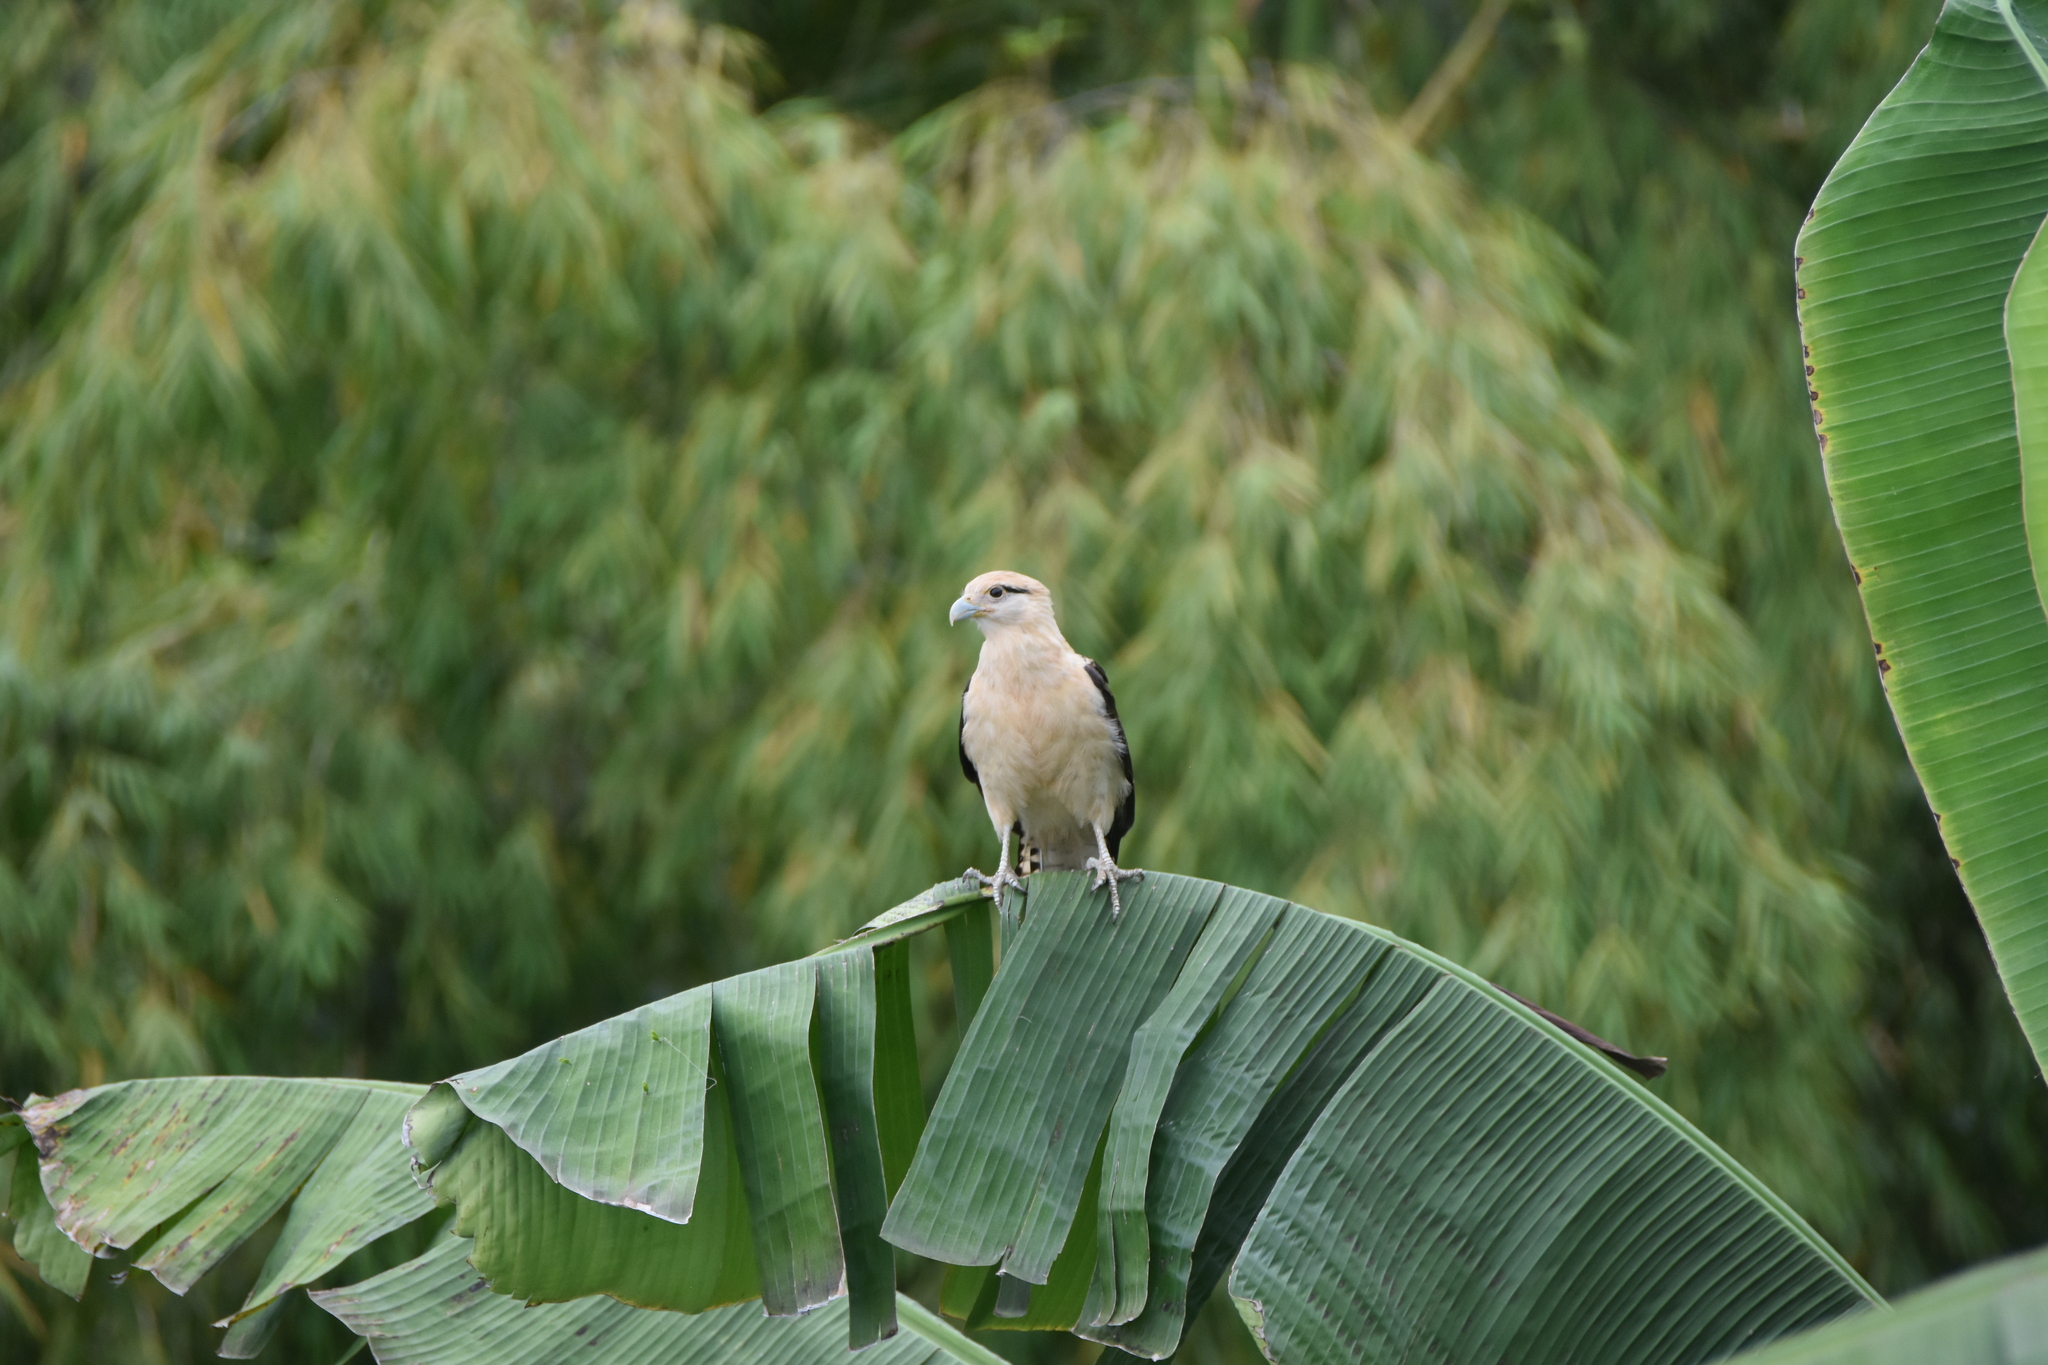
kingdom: Animalia
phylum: Chordata
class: Aves
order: Falconiformes
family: Falconidae
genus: Daptrius
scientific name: Daptrius
